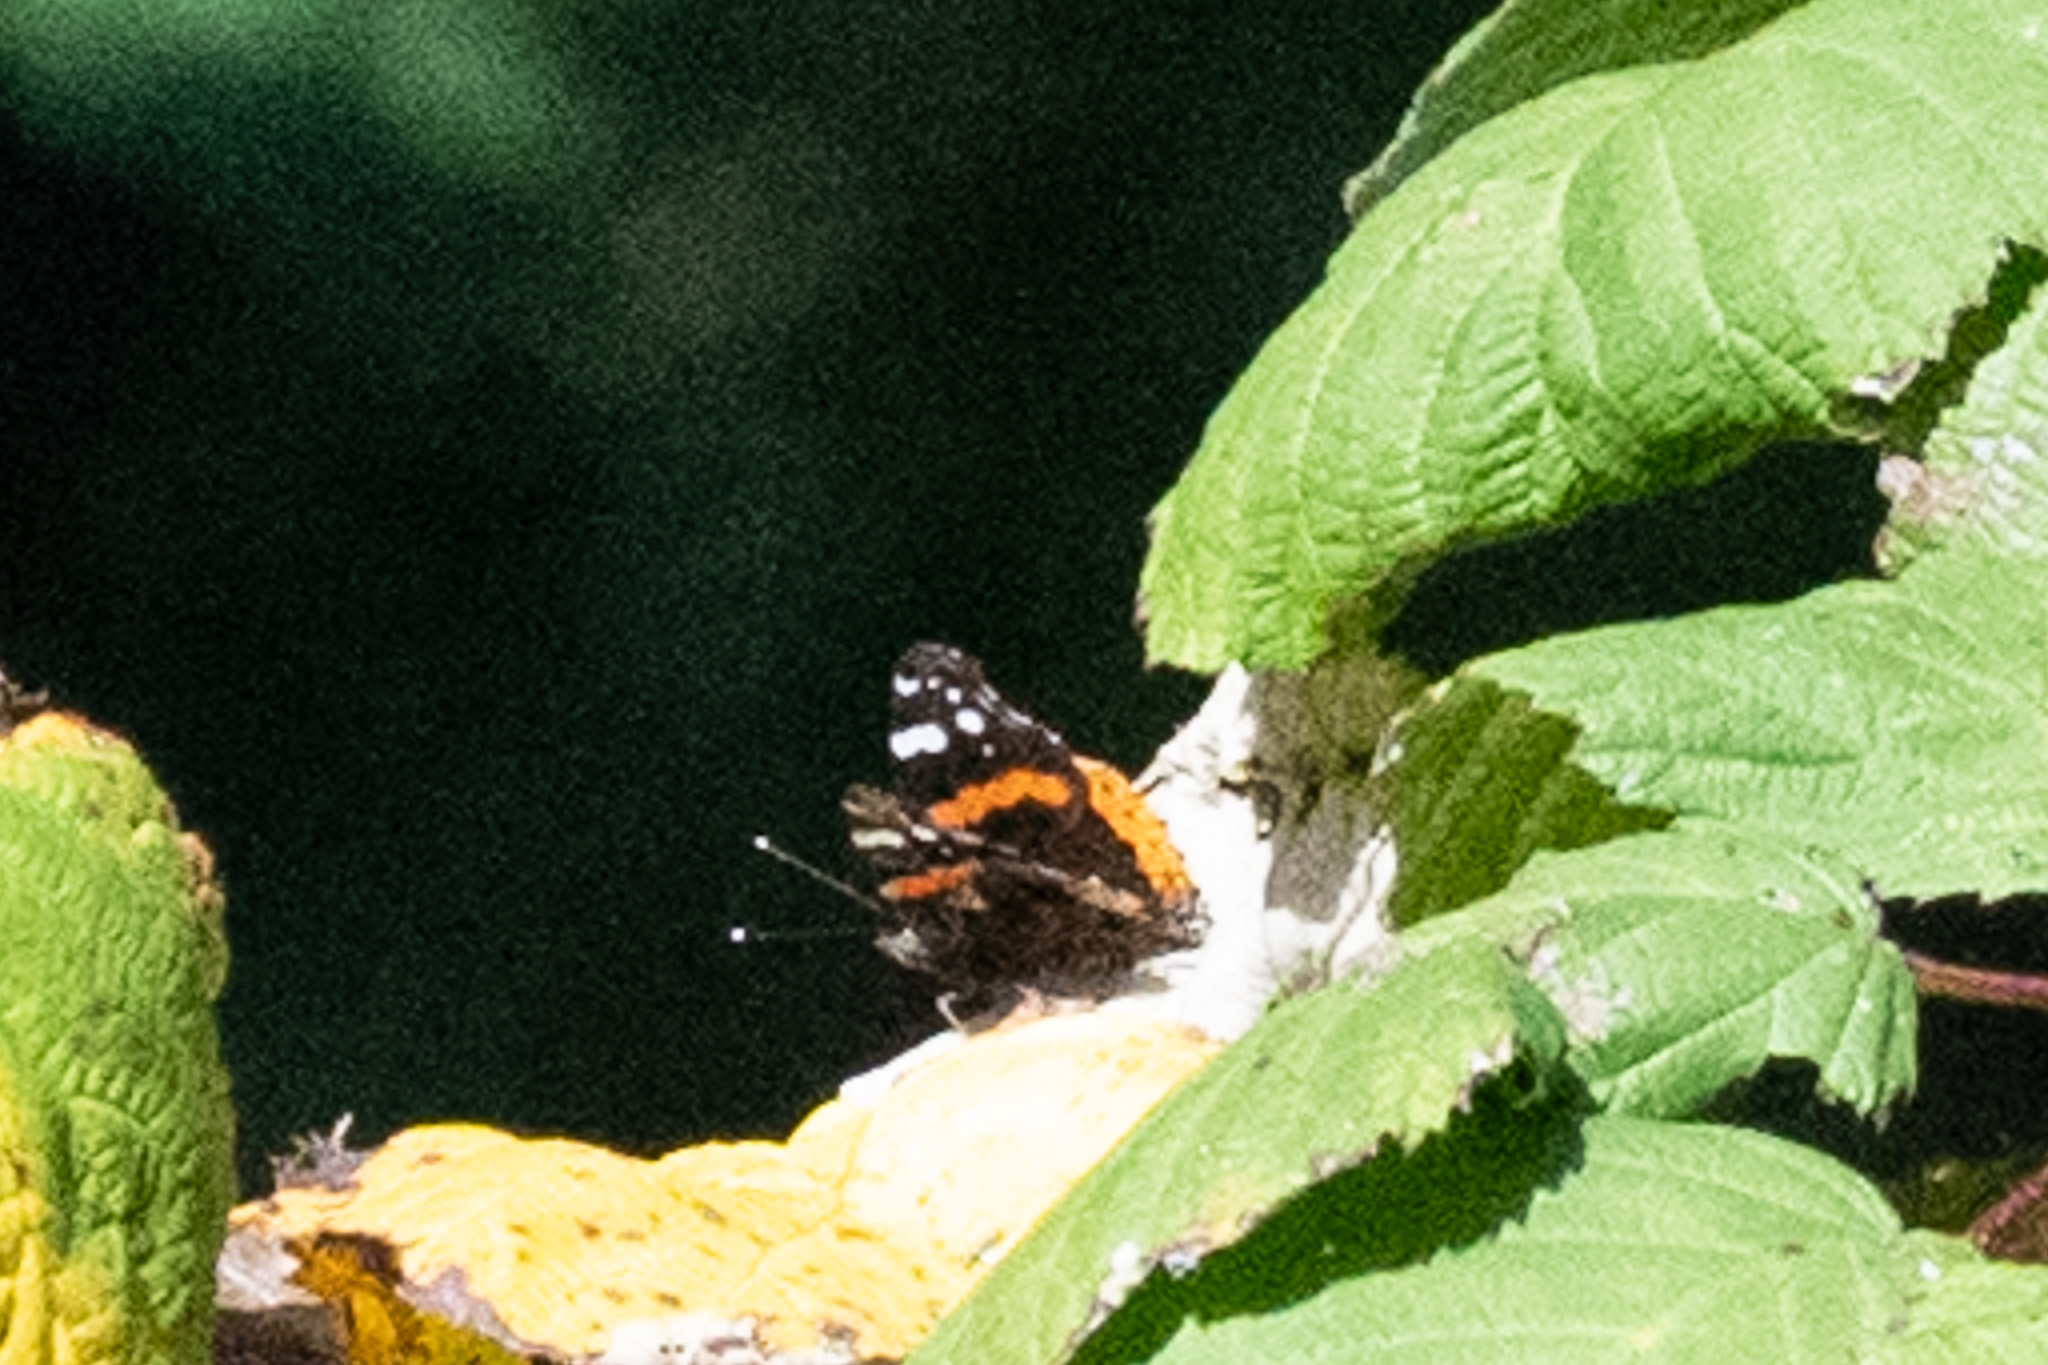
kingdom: Animalia
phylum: Arthropoda
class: Insecta
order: Lepidoptera
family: Nymphalidae
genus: Vanessa
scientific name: Vanessa atalanta
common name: Red admiral
